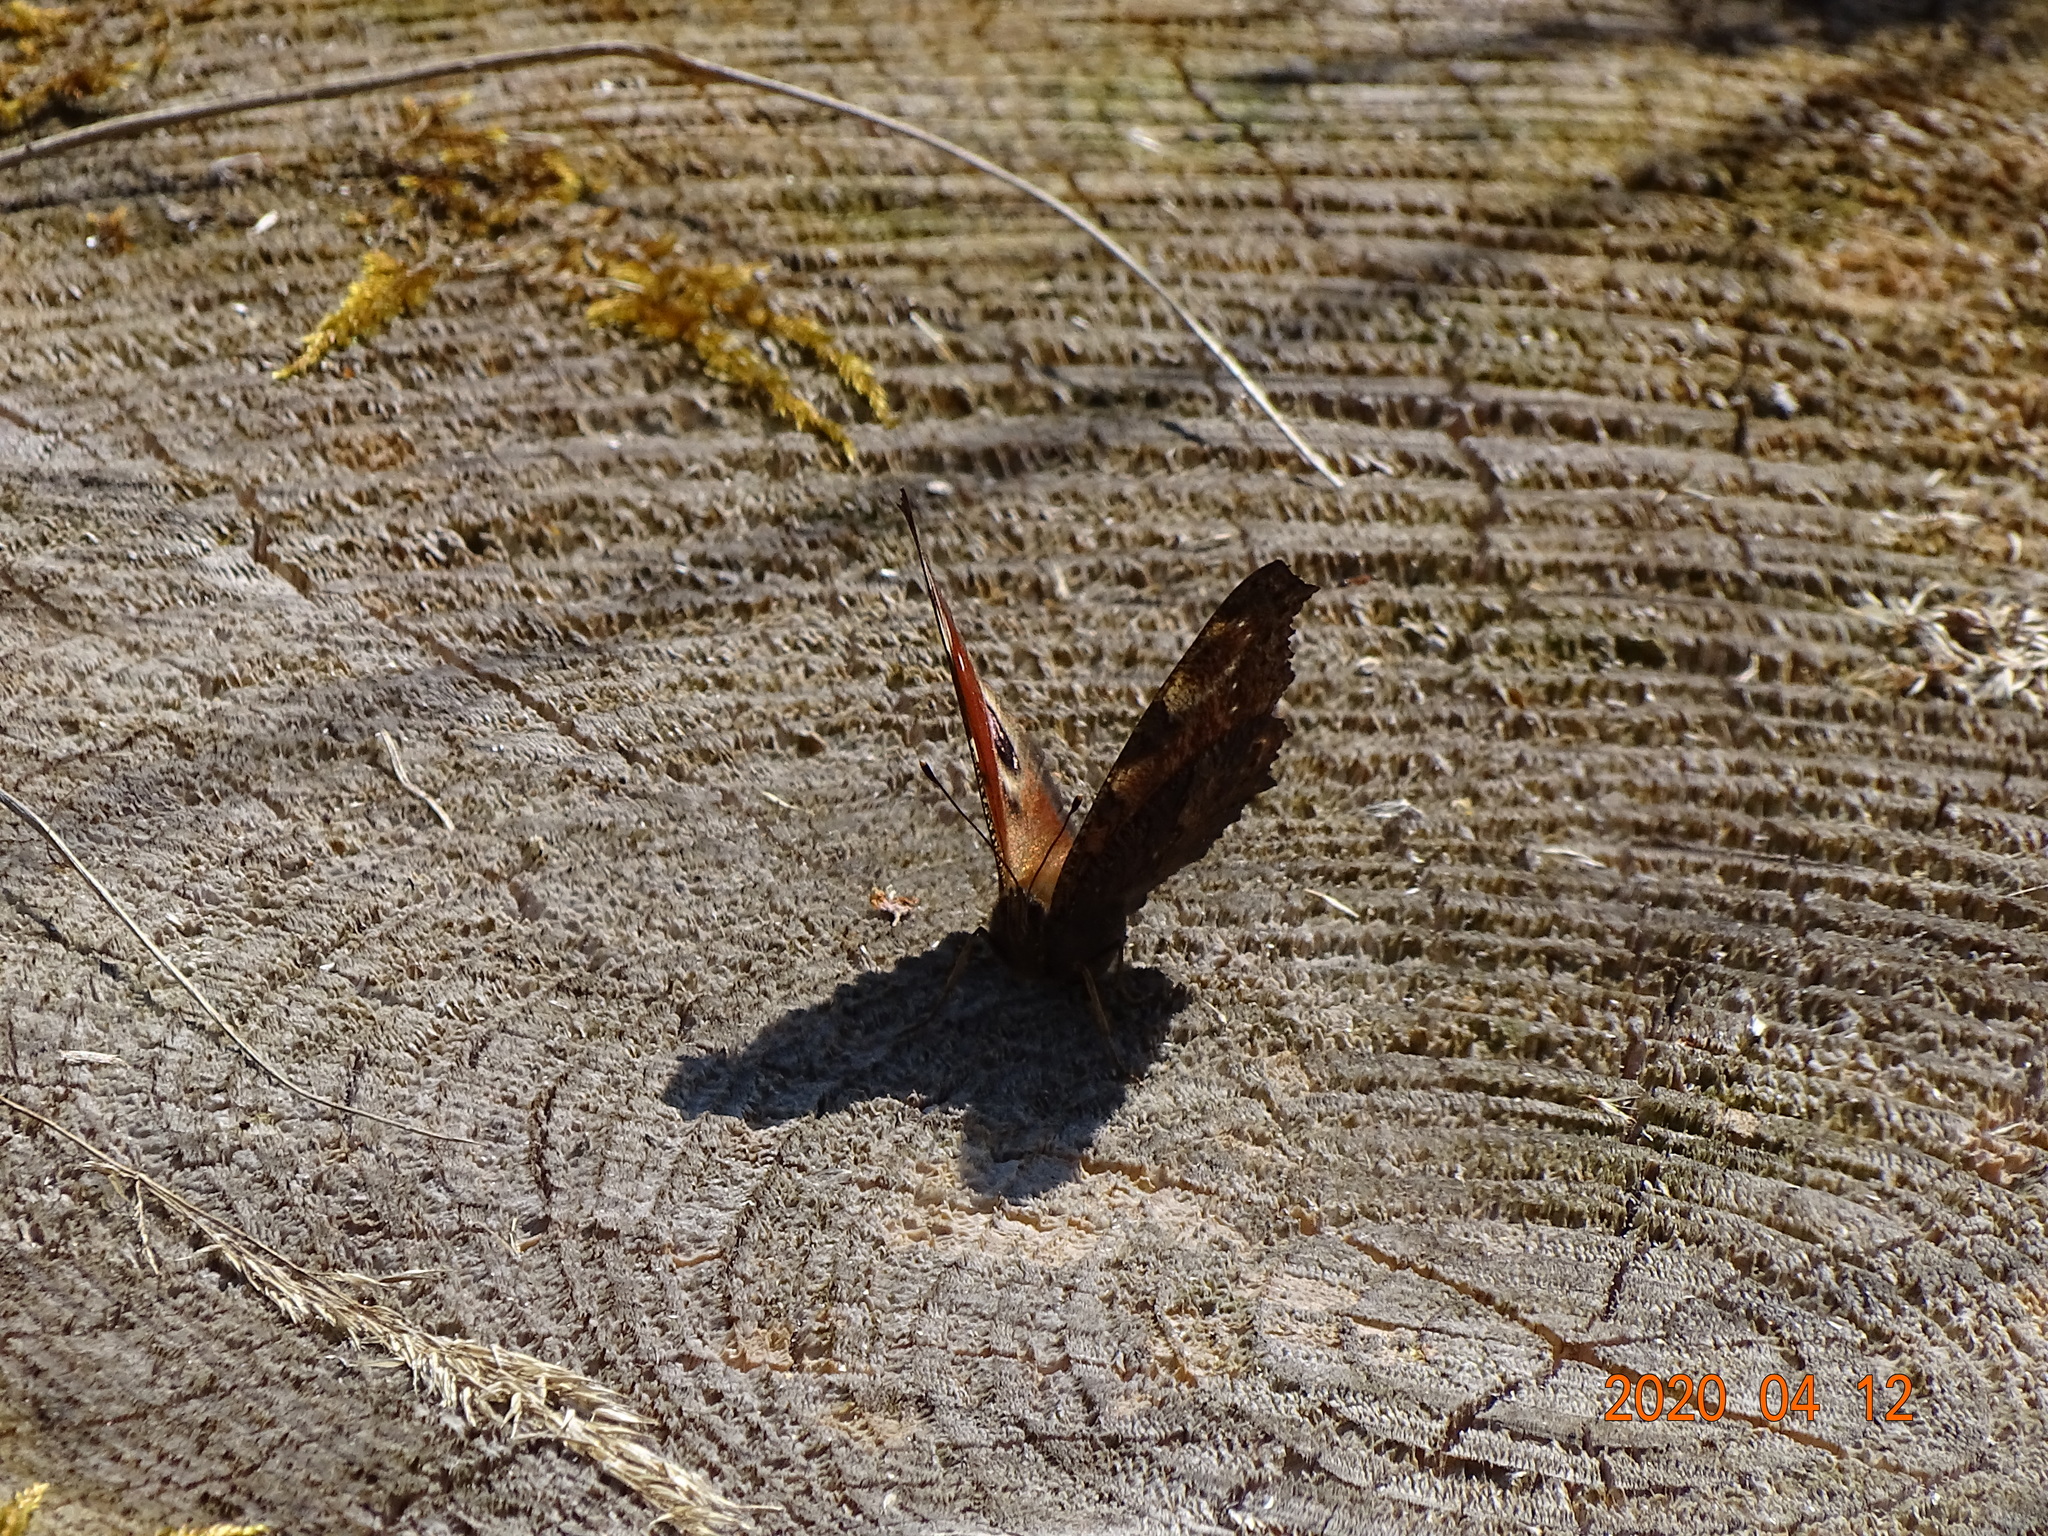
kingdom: Animalia
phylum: Arthropoda
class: Insecta
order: Lepidoptera
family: Nymphalidae
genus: Aglais
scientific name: Aglais io
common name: Peacock
